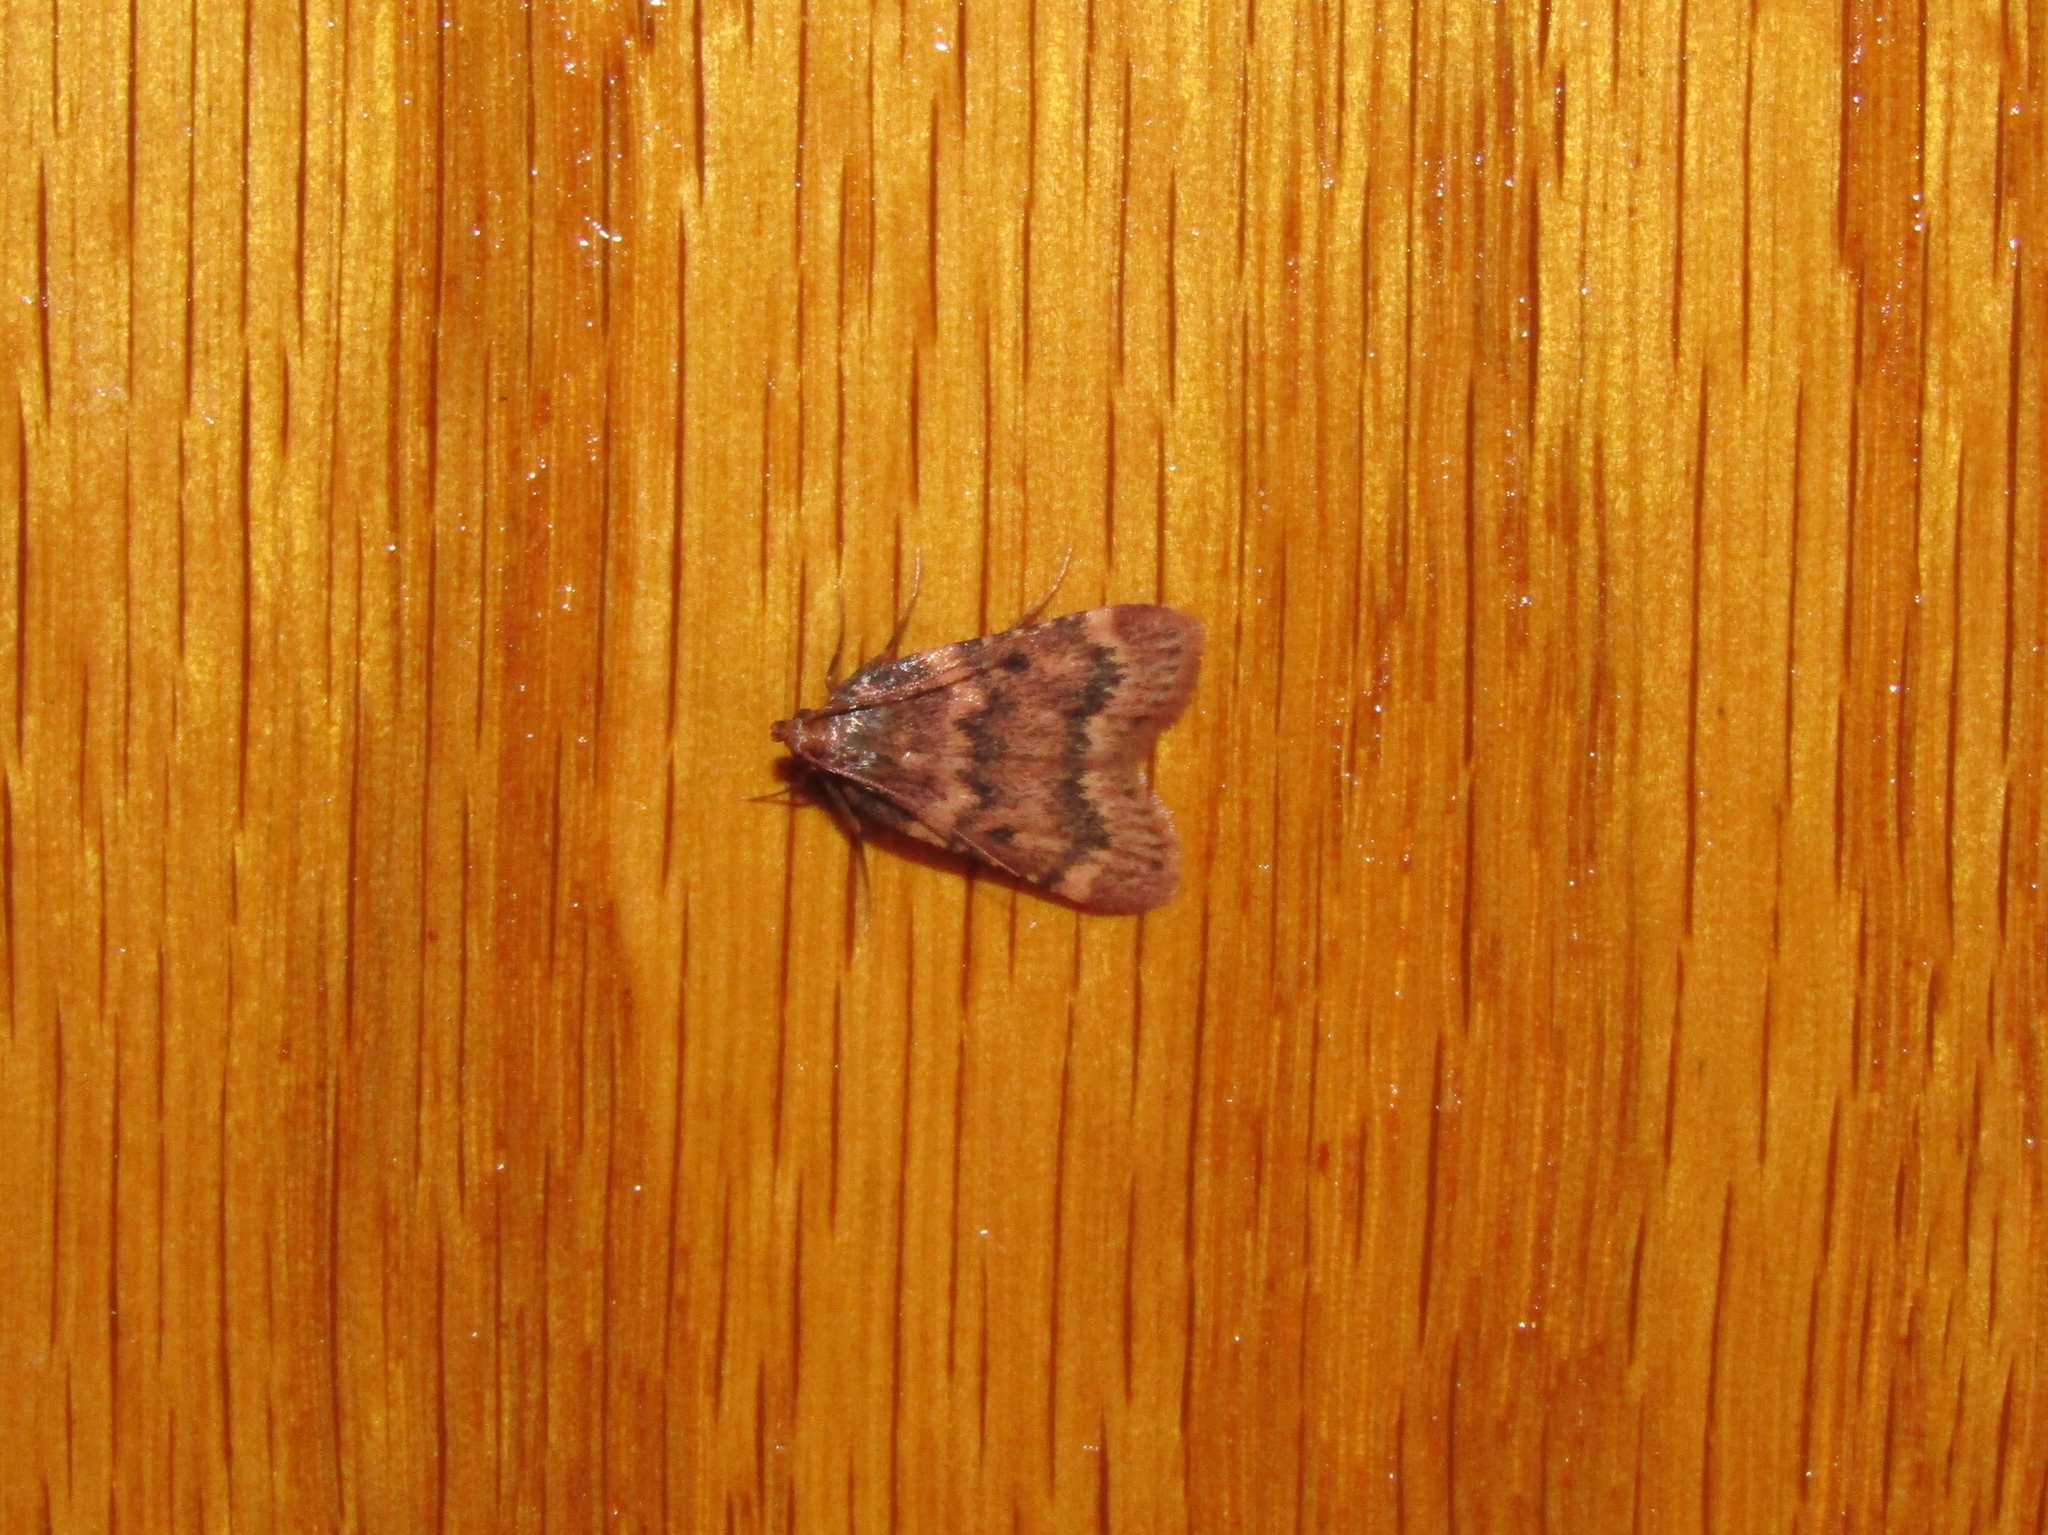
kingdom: Animalia
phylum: Arthropoda
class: Insecta
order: Lepidoptera
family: Pyralidae
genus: Aglossa
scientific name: Aglossa disciferalis
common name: Pink-masked pyralid moth
